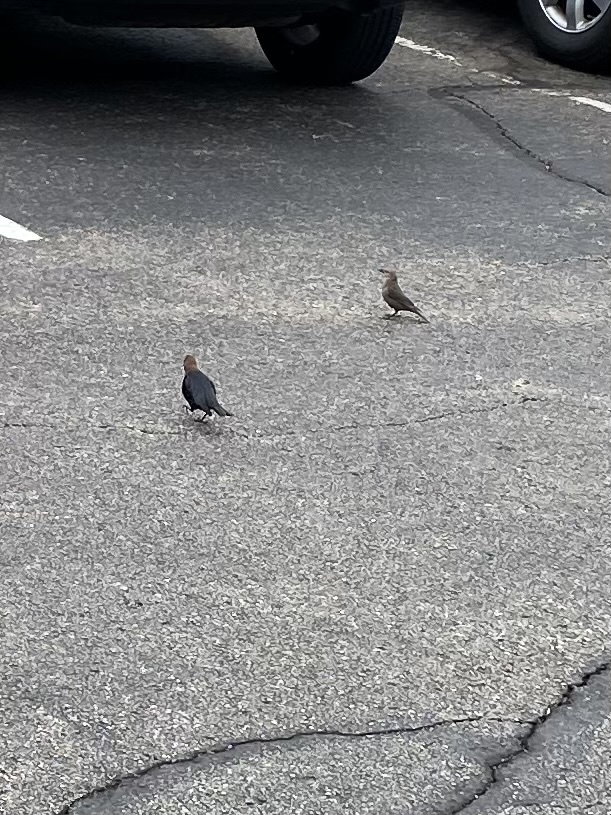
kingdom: Animalia
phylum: Chordata
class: Aves
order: Passeriformes
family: Icteridae
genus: Molothrus
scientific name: Molothrus ater
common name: Brown-headed cowbird
